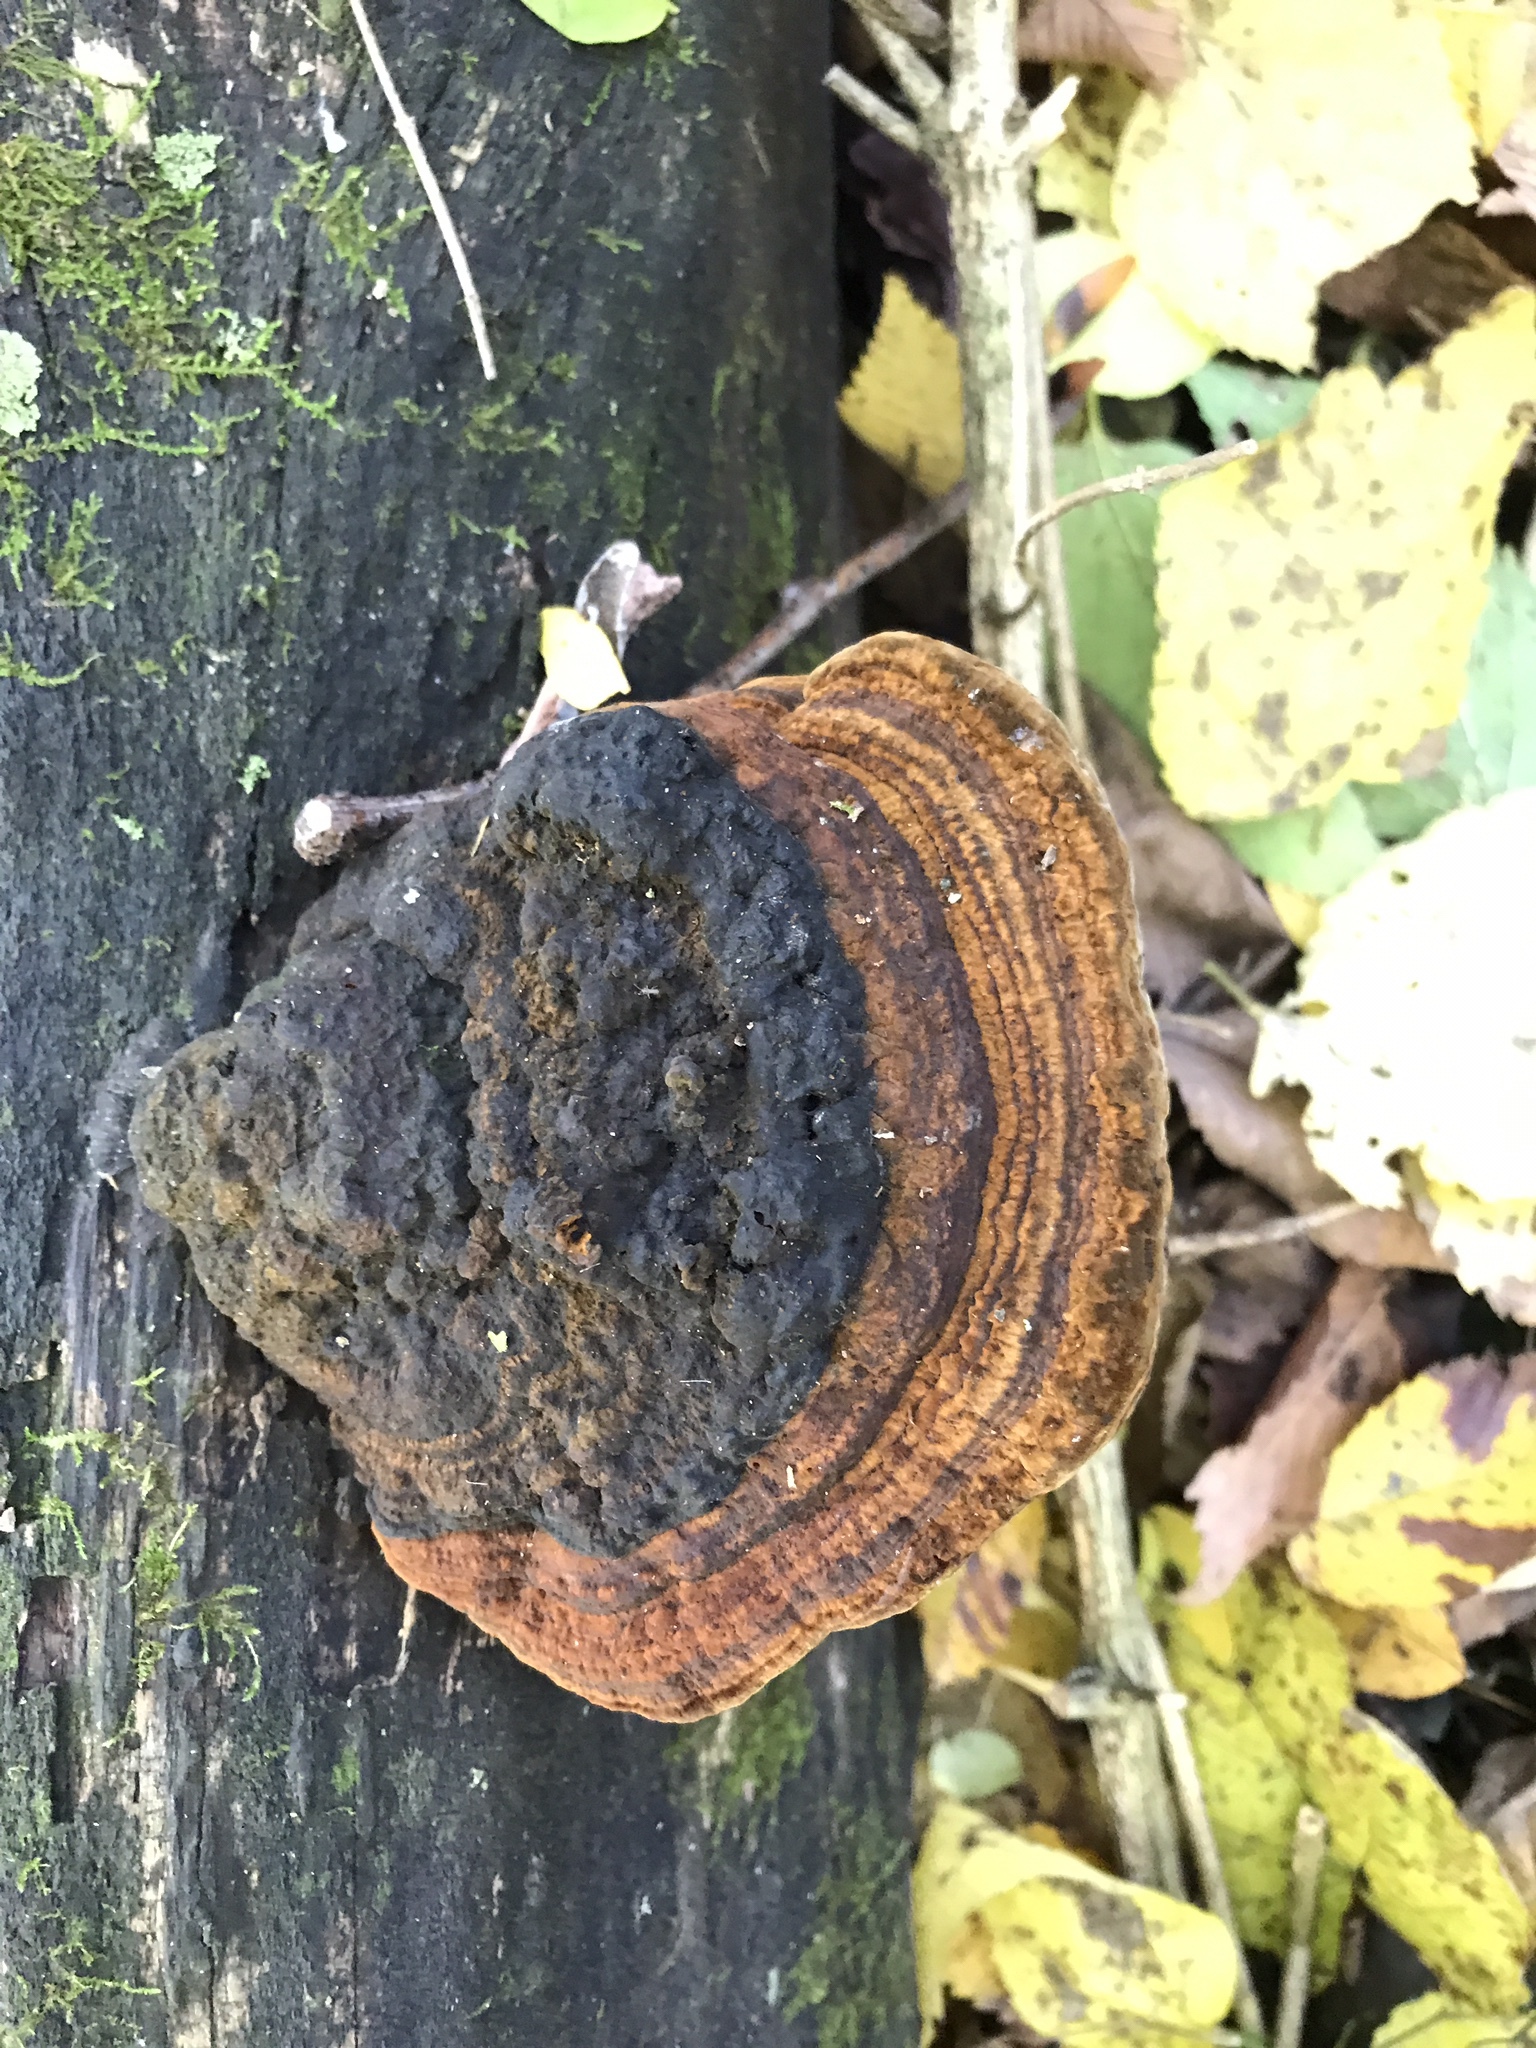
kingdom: Fungi
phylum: Basidiomycota
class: Agaricomycetes
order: Hymenochaetales
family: Hymenochaetaceae
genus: Phellinus
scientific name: Phellinus robiniae
